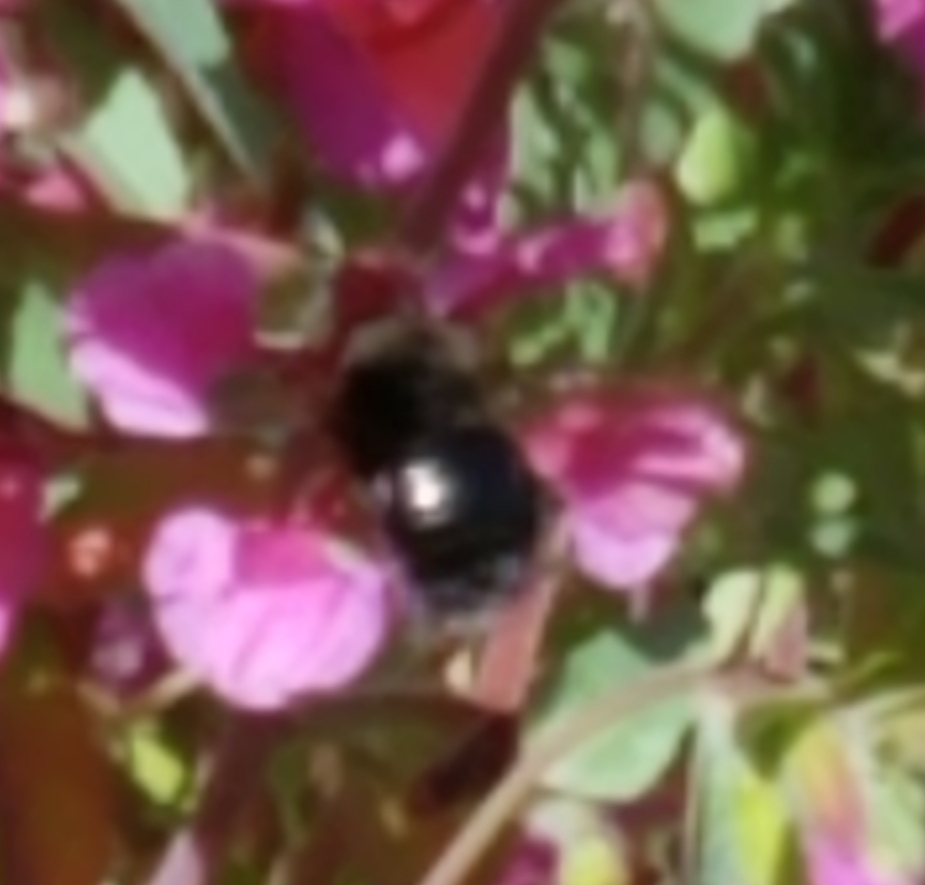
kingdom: Animalia
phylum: Arthropoda
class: Insecta
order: Hymenoptera
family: Apidae
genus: Xylocopa
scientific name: Xylocopa tabaniformis
